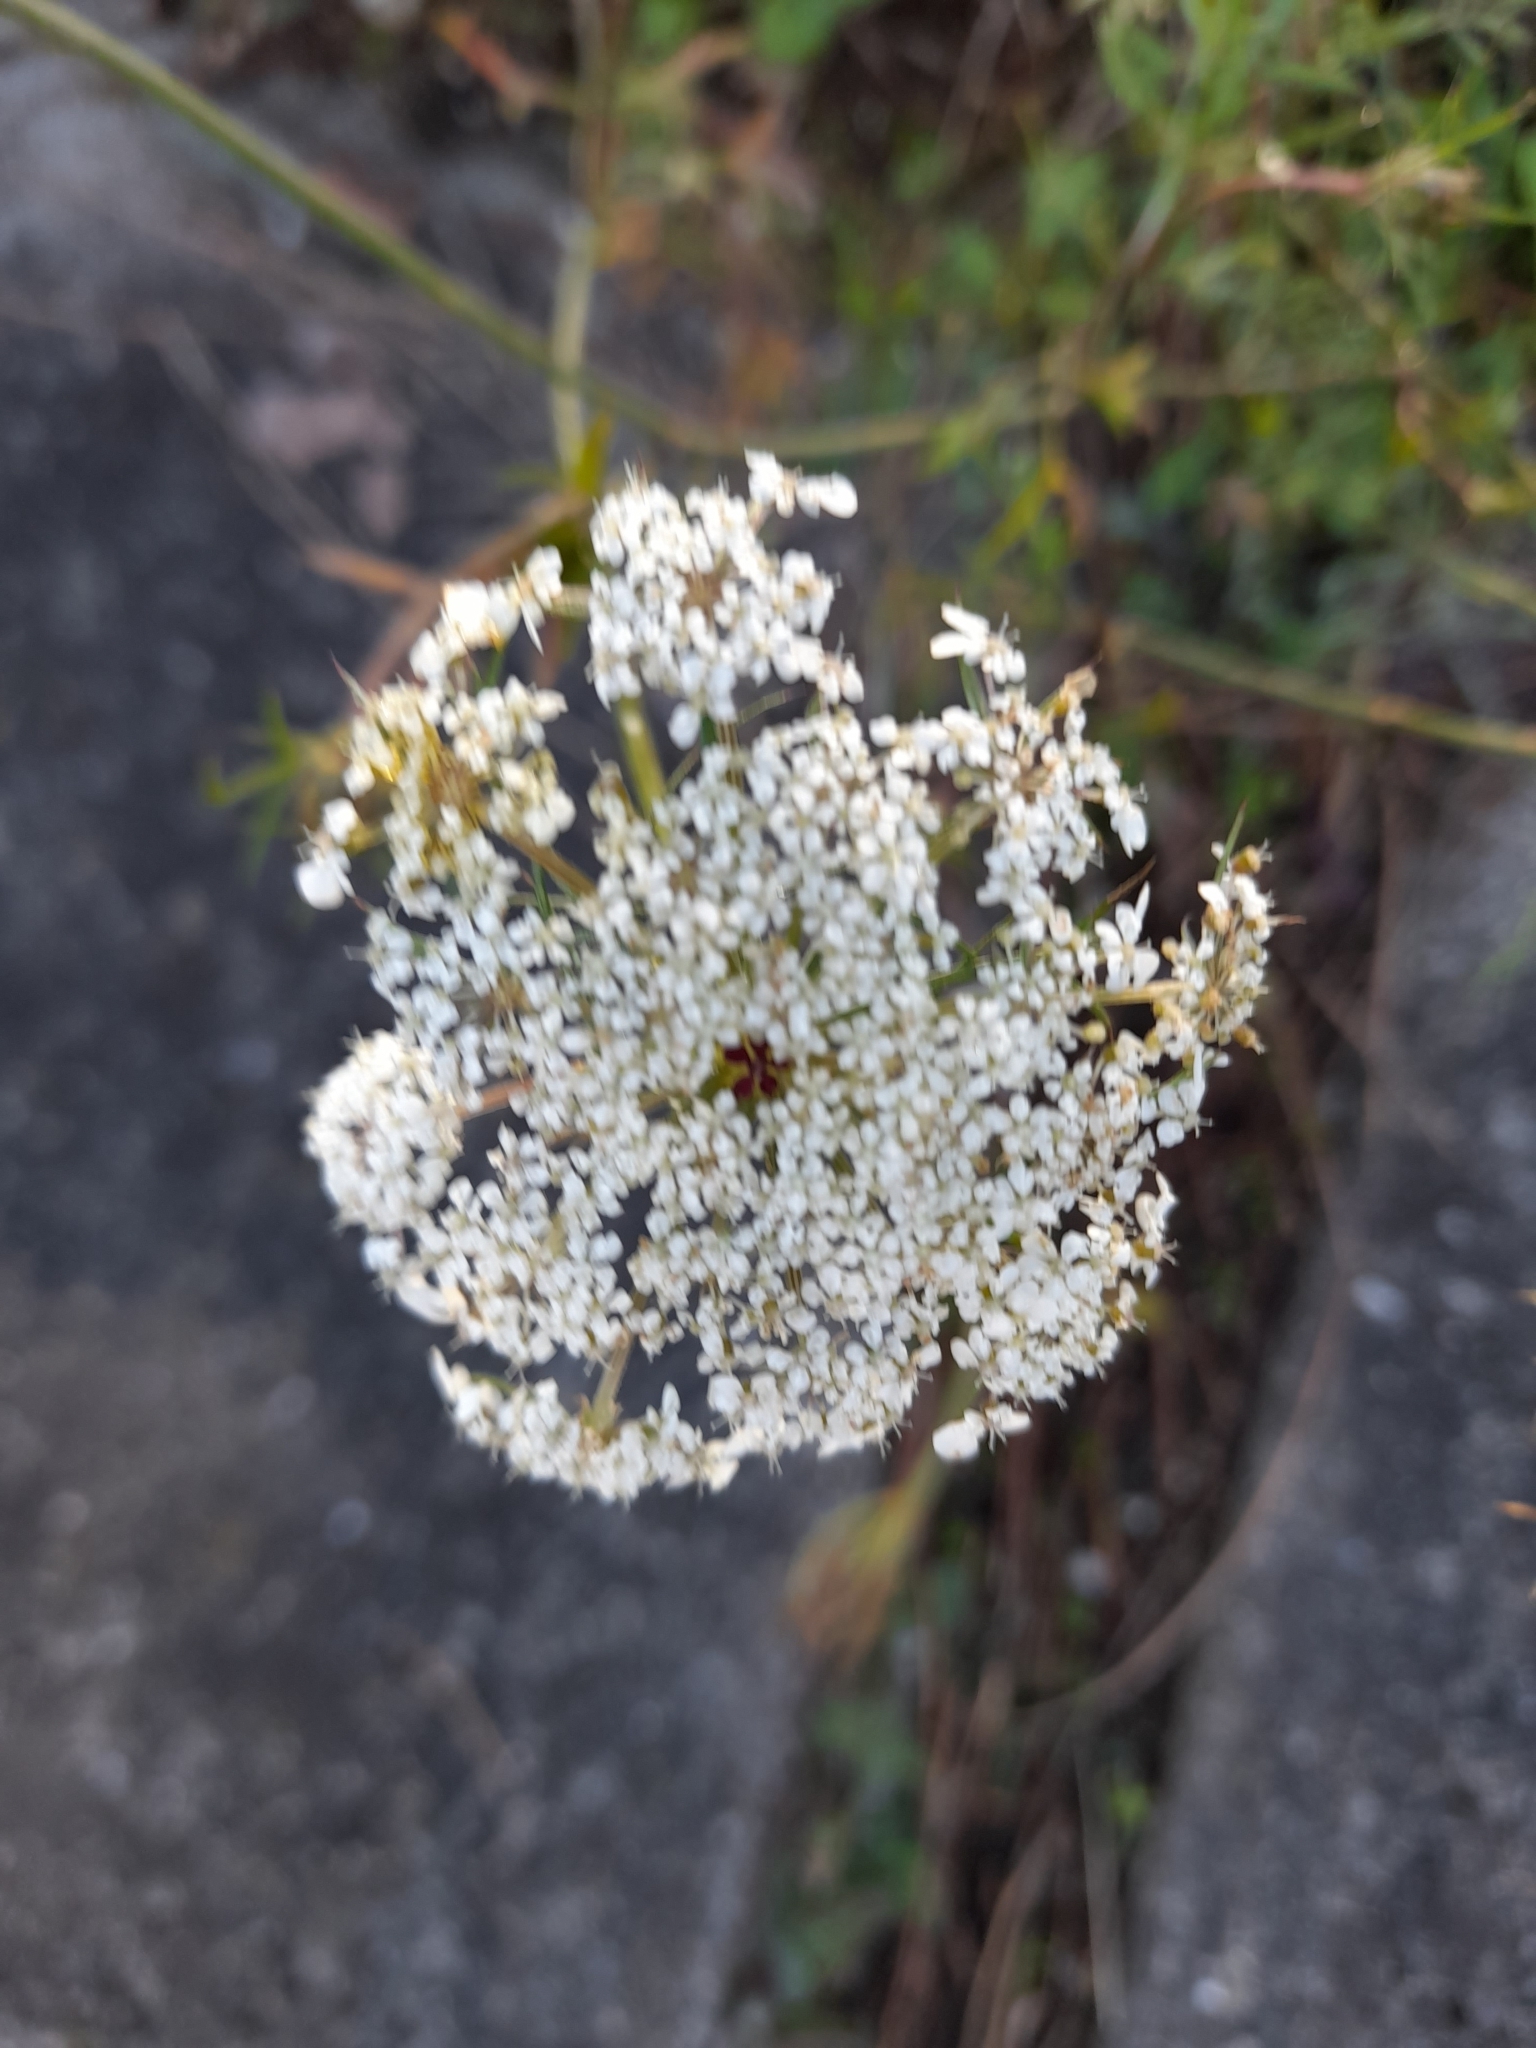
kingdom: Plantae
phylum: Tracheophyta
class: Magnoliopsida
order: Apiales
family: Apiaceae
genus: Daucus
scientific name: Daucus carota
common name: Wild carrot
